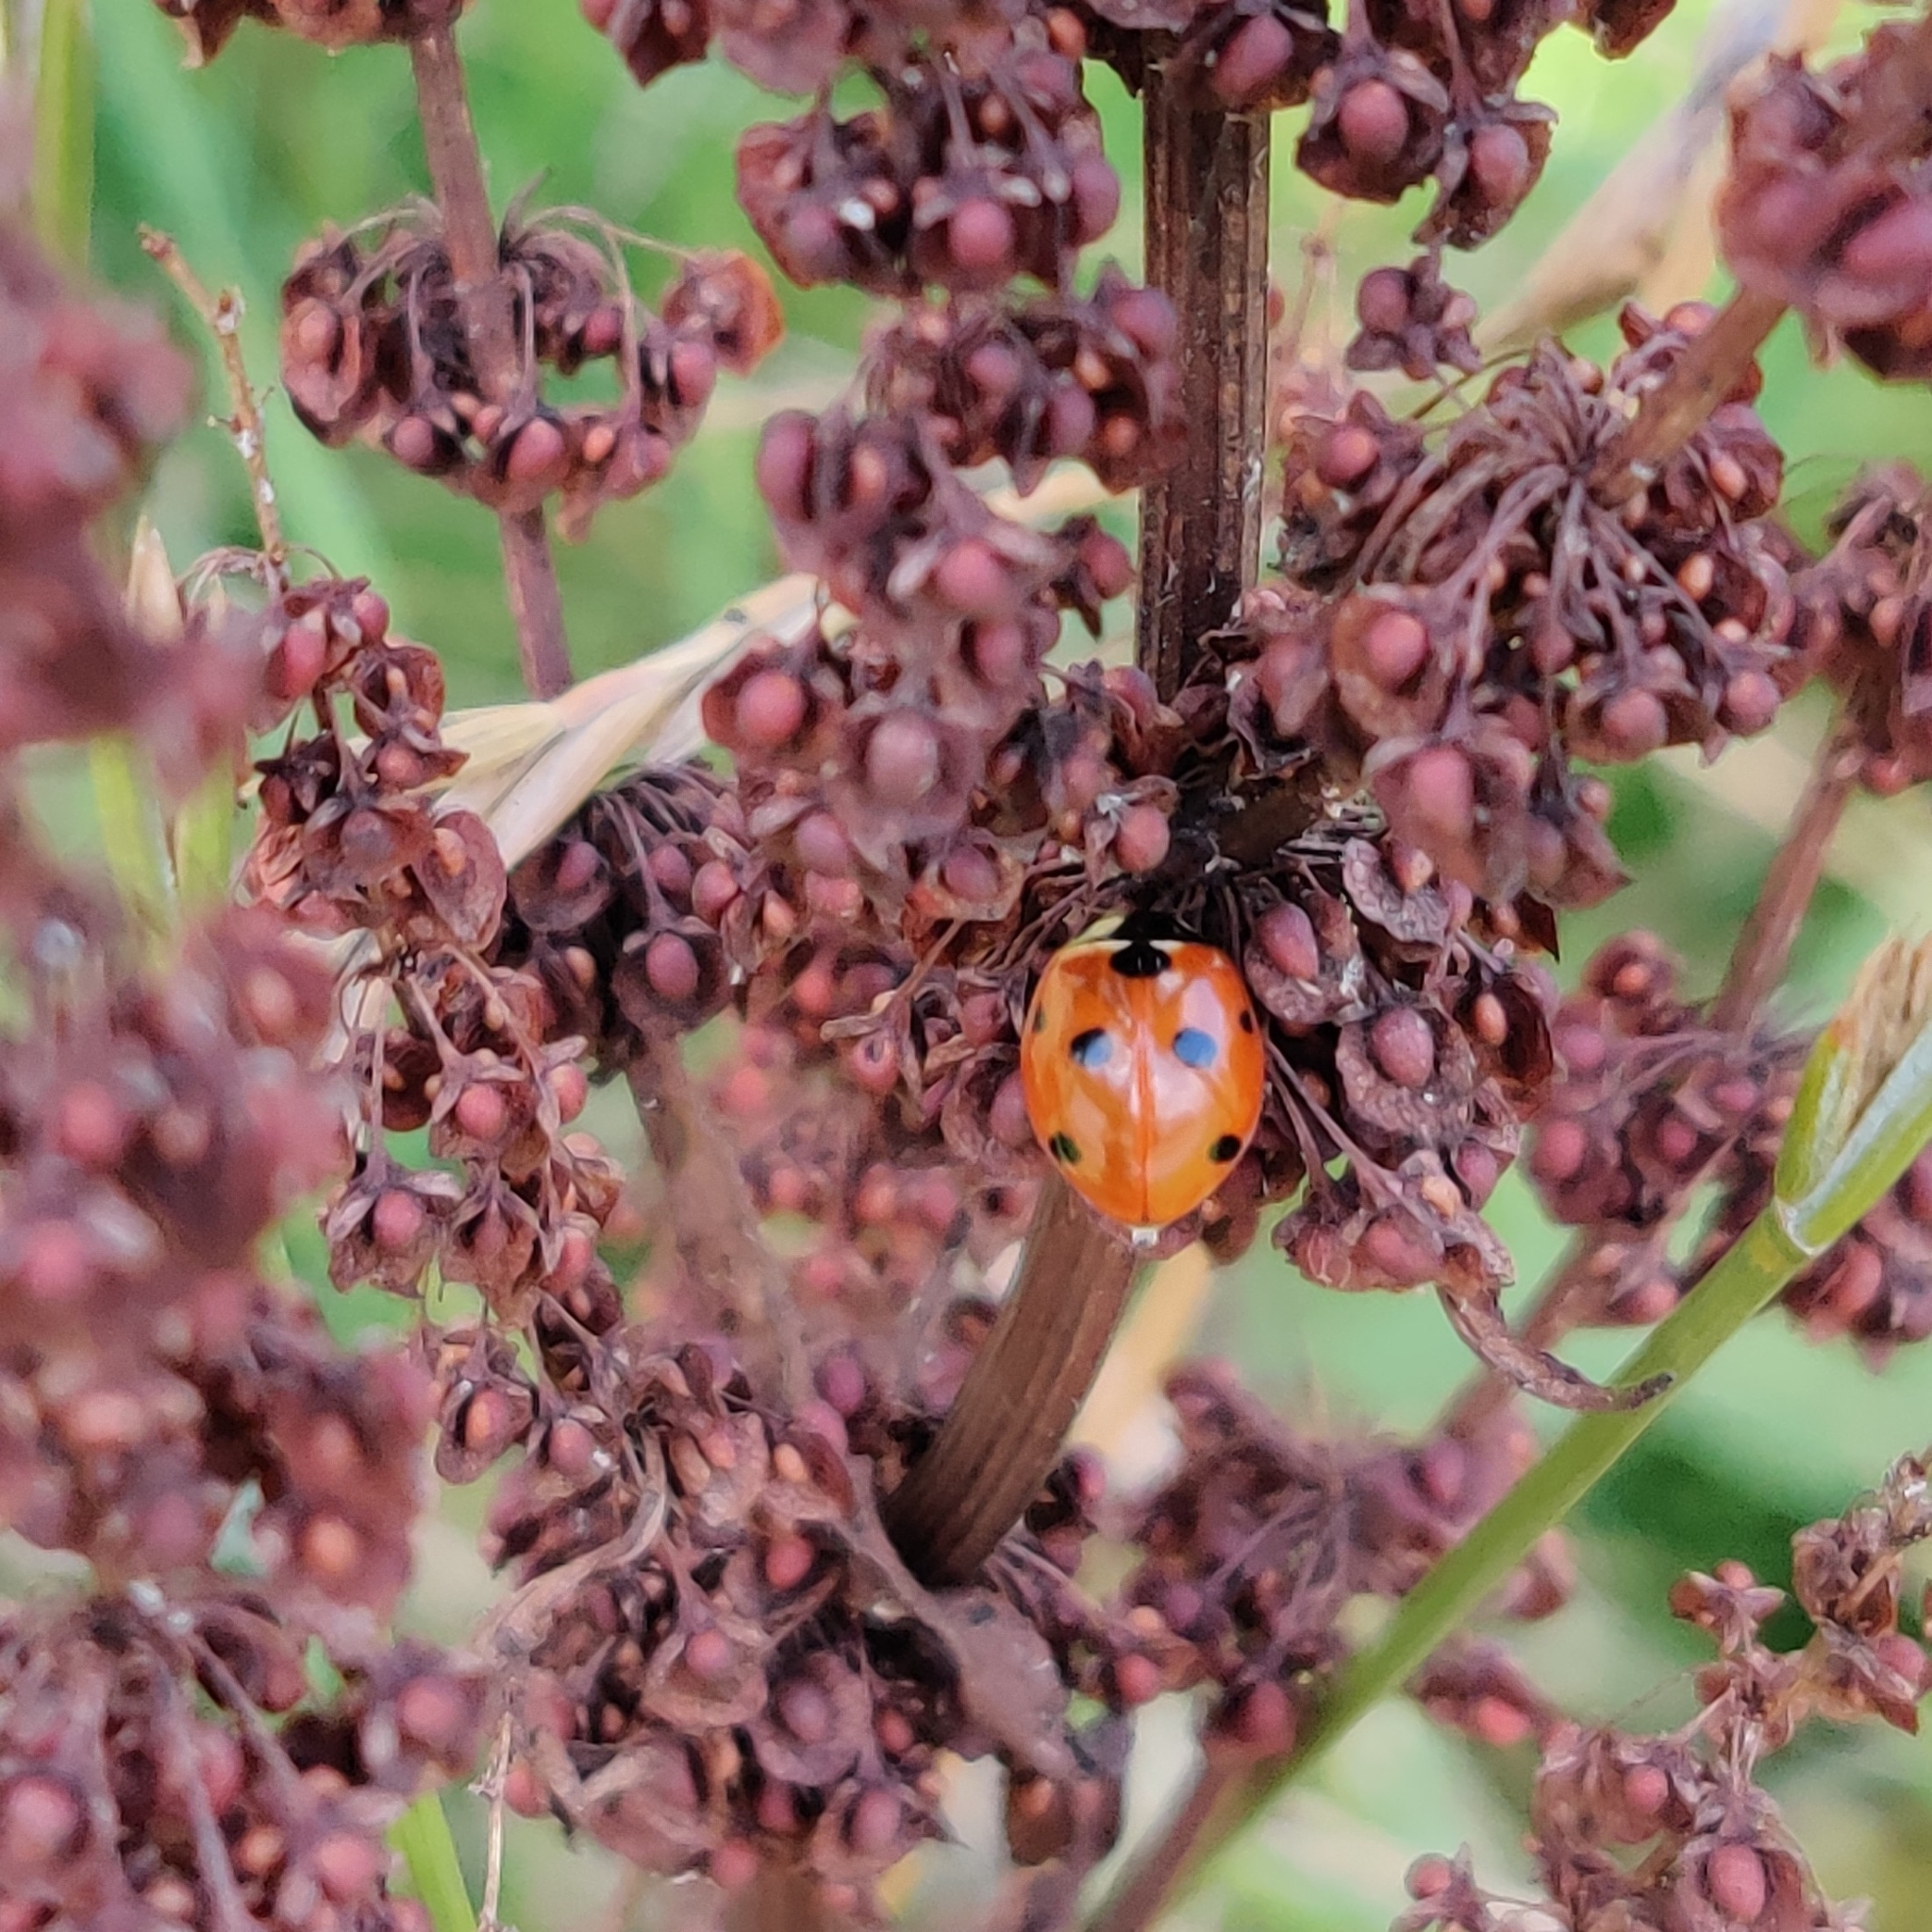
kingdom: Animalia
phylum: Arthropoda
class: Insecta
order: Coleoptera
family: Coccinellidae
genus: Coccinella
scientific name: Coccinella septempunctata
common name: Sevenspotted lady beetle
